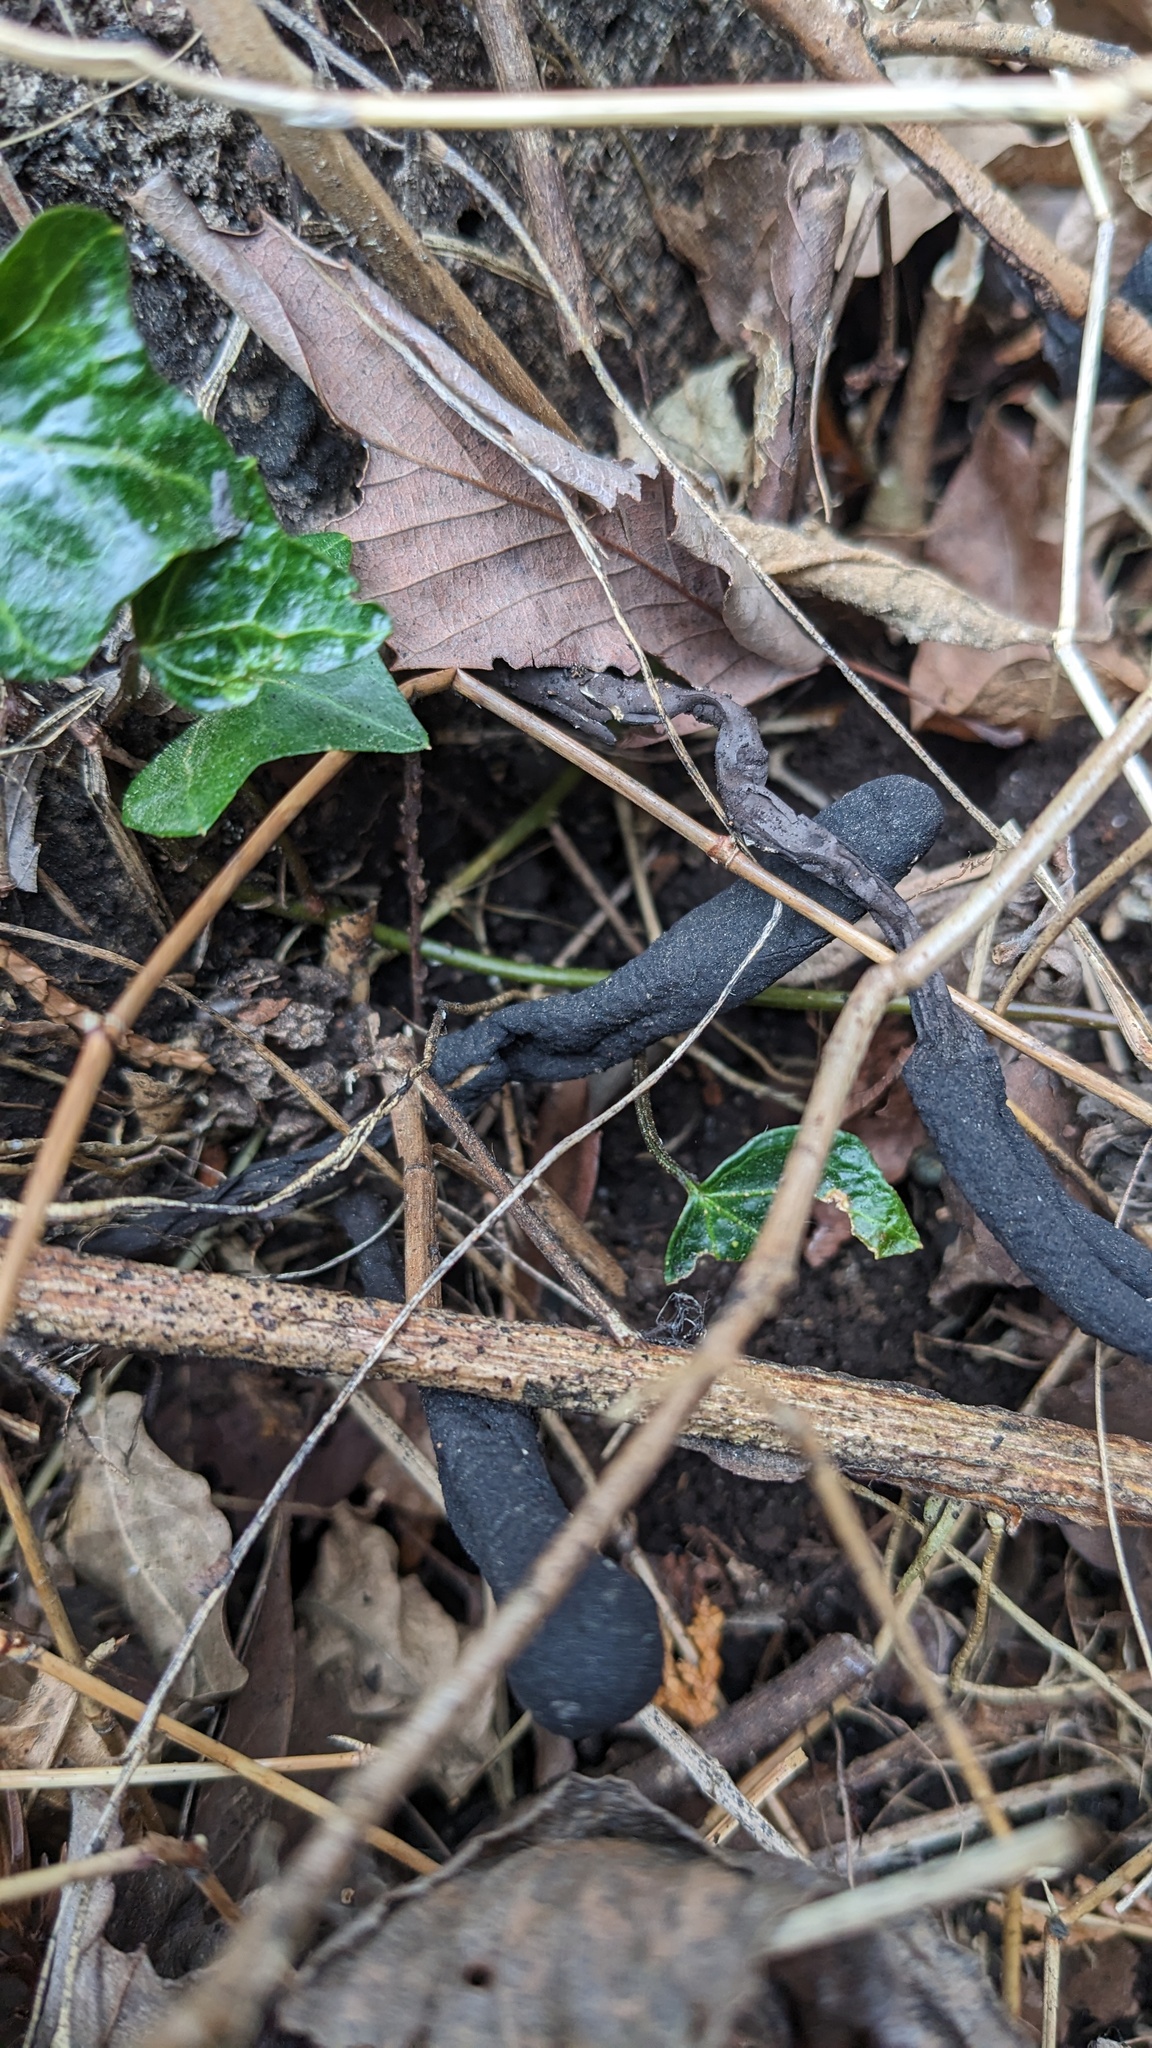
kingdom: Fungi
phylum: Ascomycota
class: Sordariomycetes
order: Xylariales
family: Xylariaceae
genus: Xylaria
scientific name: Xylaria polymorpha
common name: Dead man's fingers
